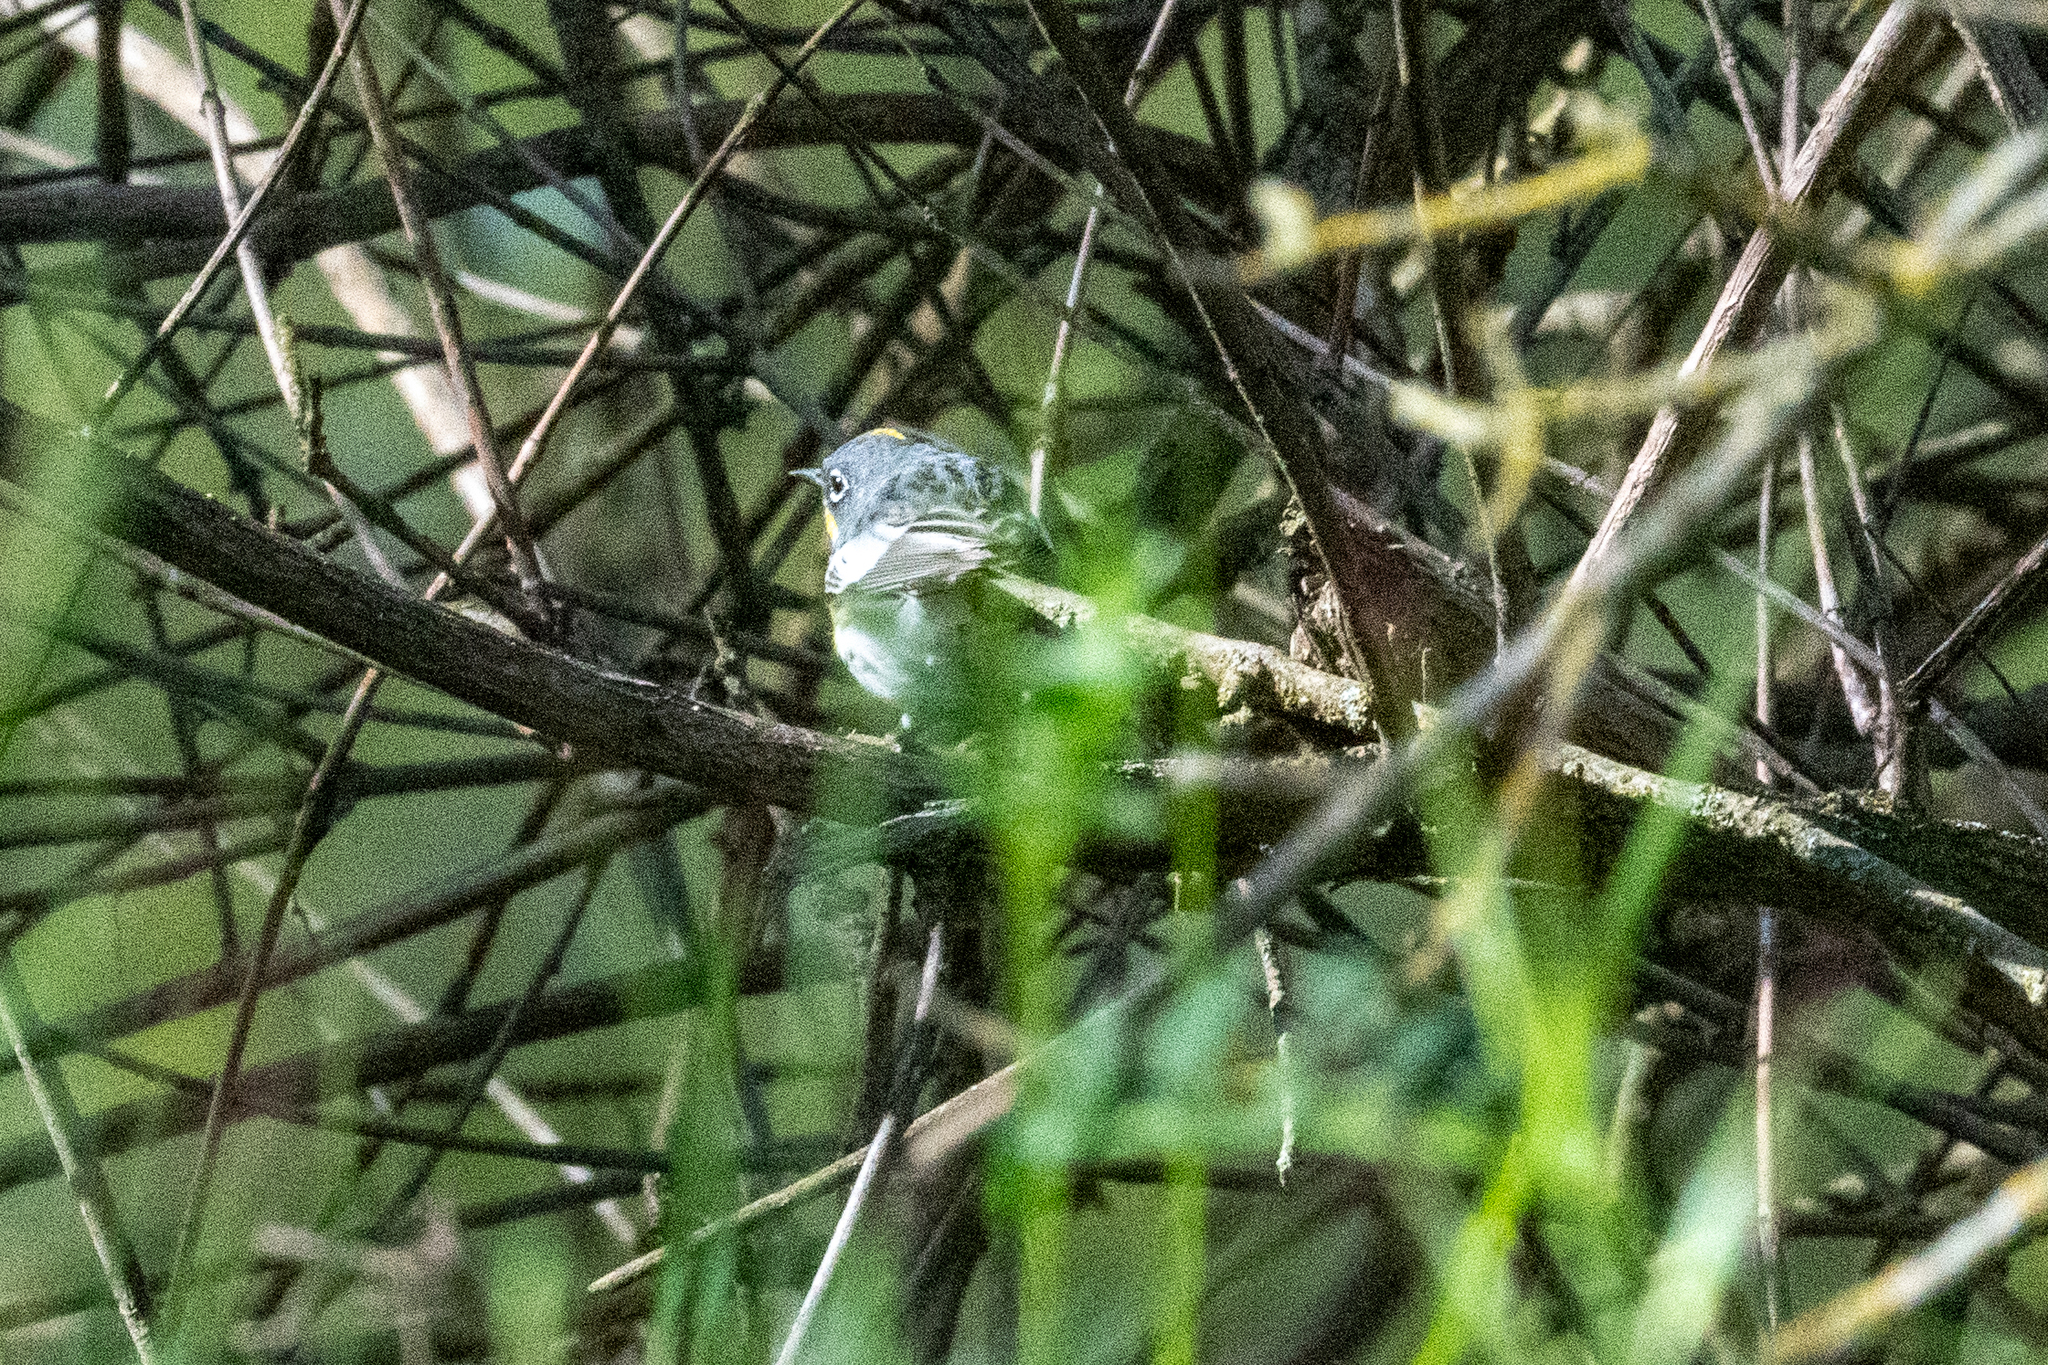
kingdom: Animalia
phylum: Chordata
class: Aves
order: Passeriformes
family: Parulidae
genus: Setophaga
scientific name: Setophaga coronata
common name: Myrtle warbler
